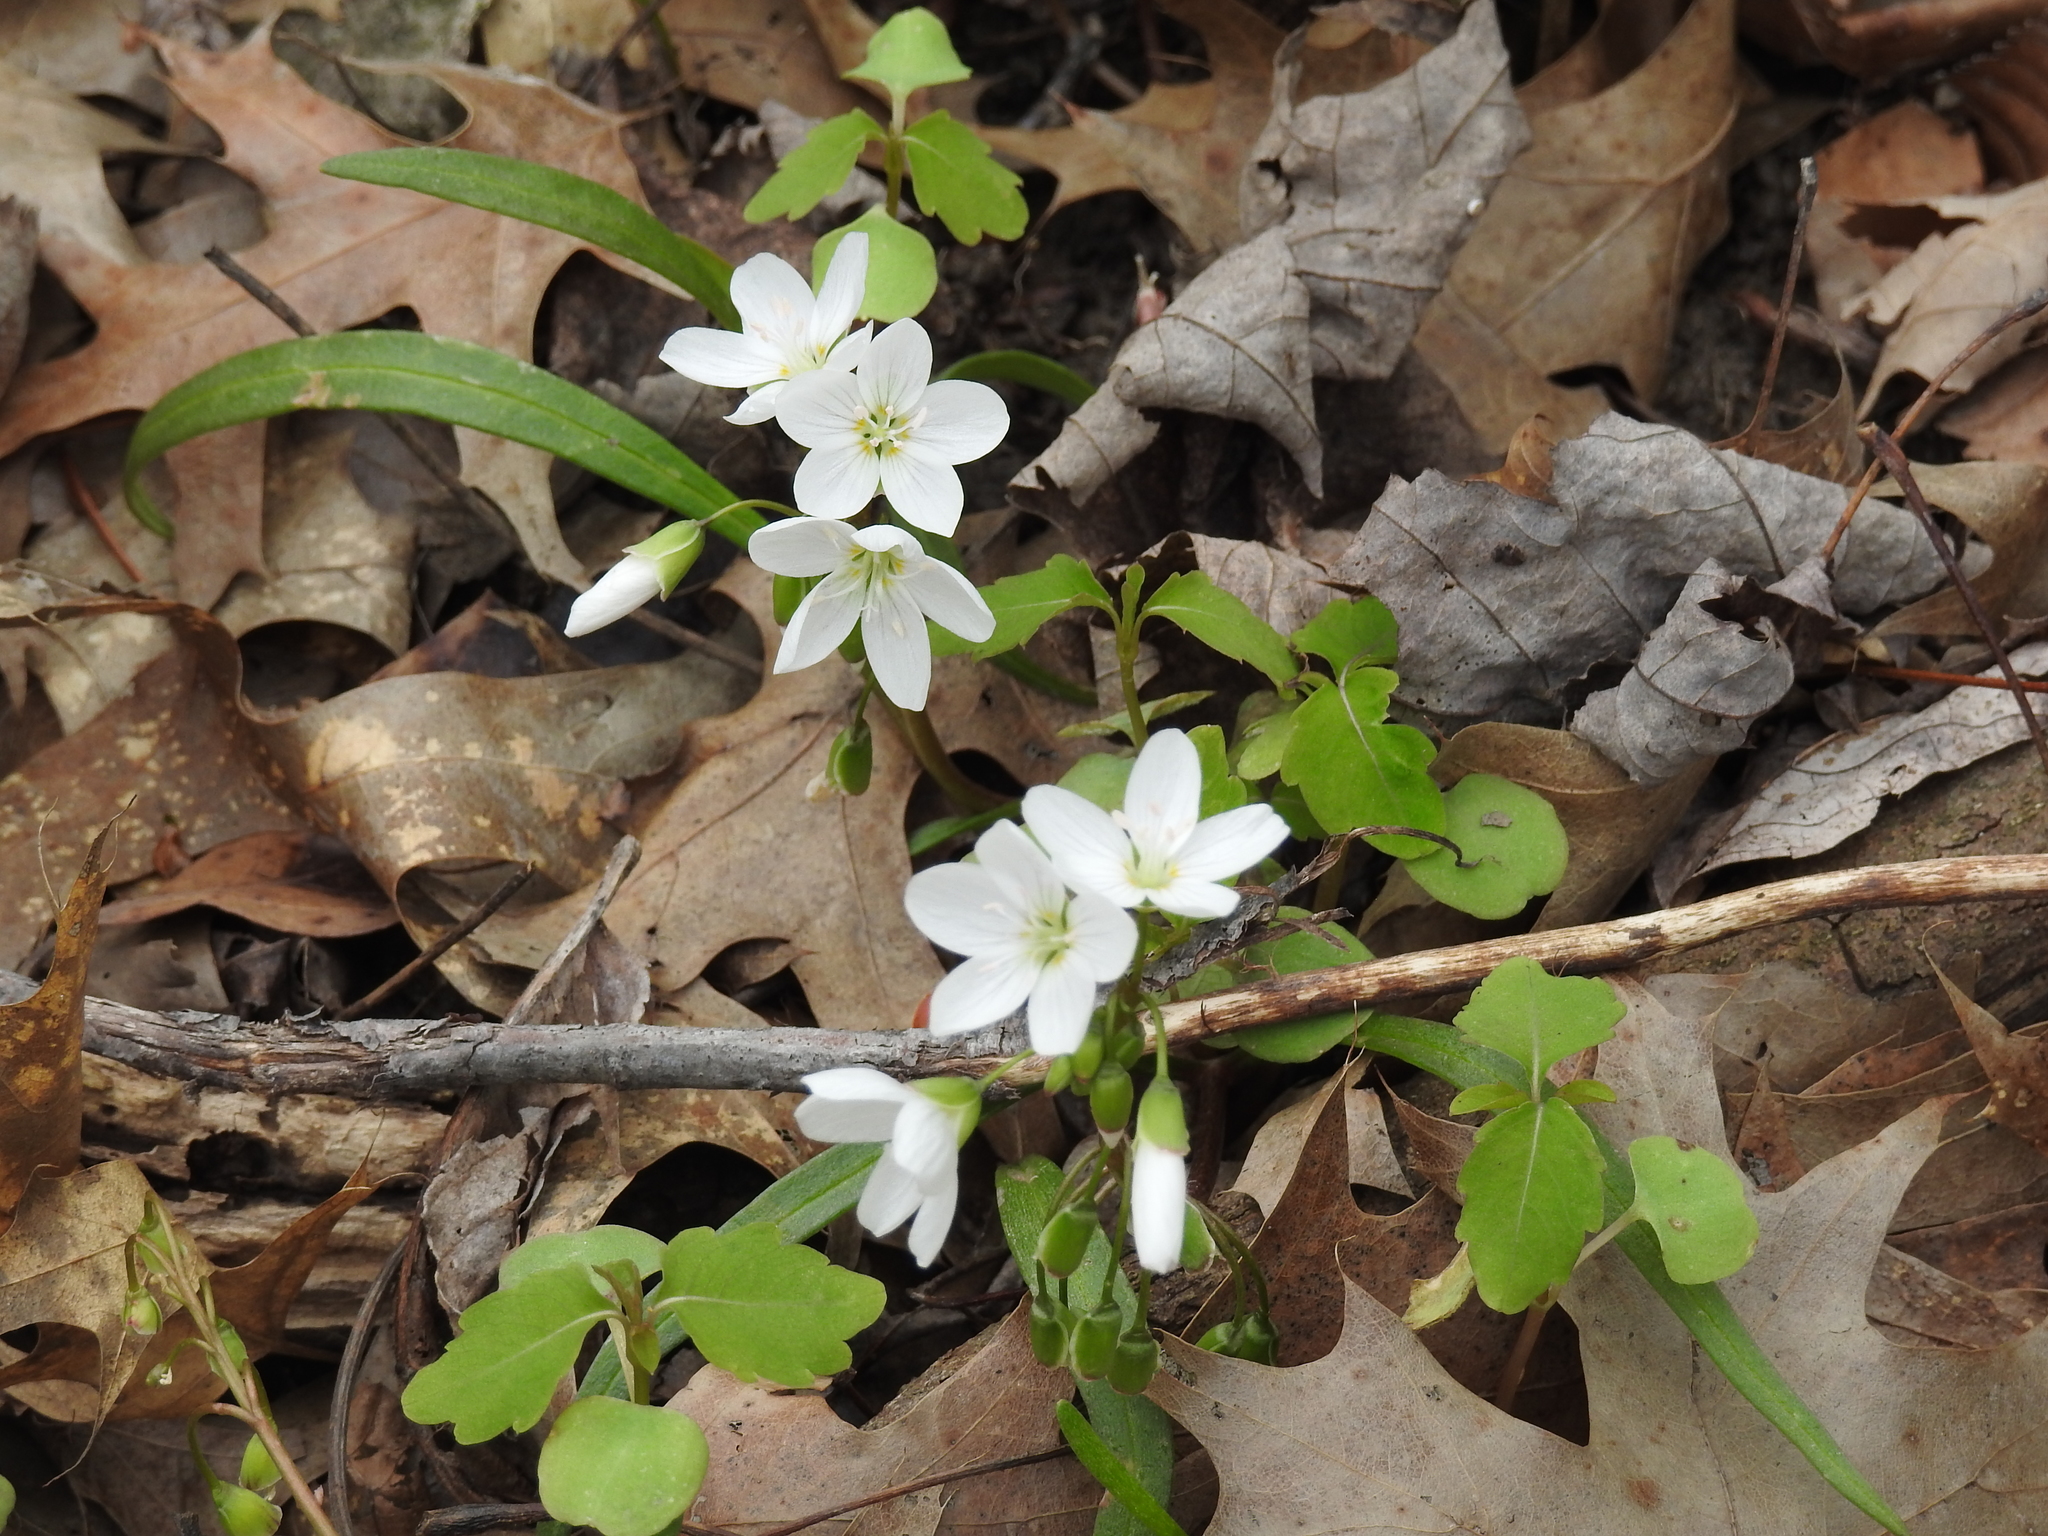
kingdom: Plantae
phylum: Tracheophyta
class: Magnoliopsida
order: Caryophyllales
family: Montiaceae
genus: Claytonia
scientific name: Claytonia virginica
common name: Virginia springbeauty
